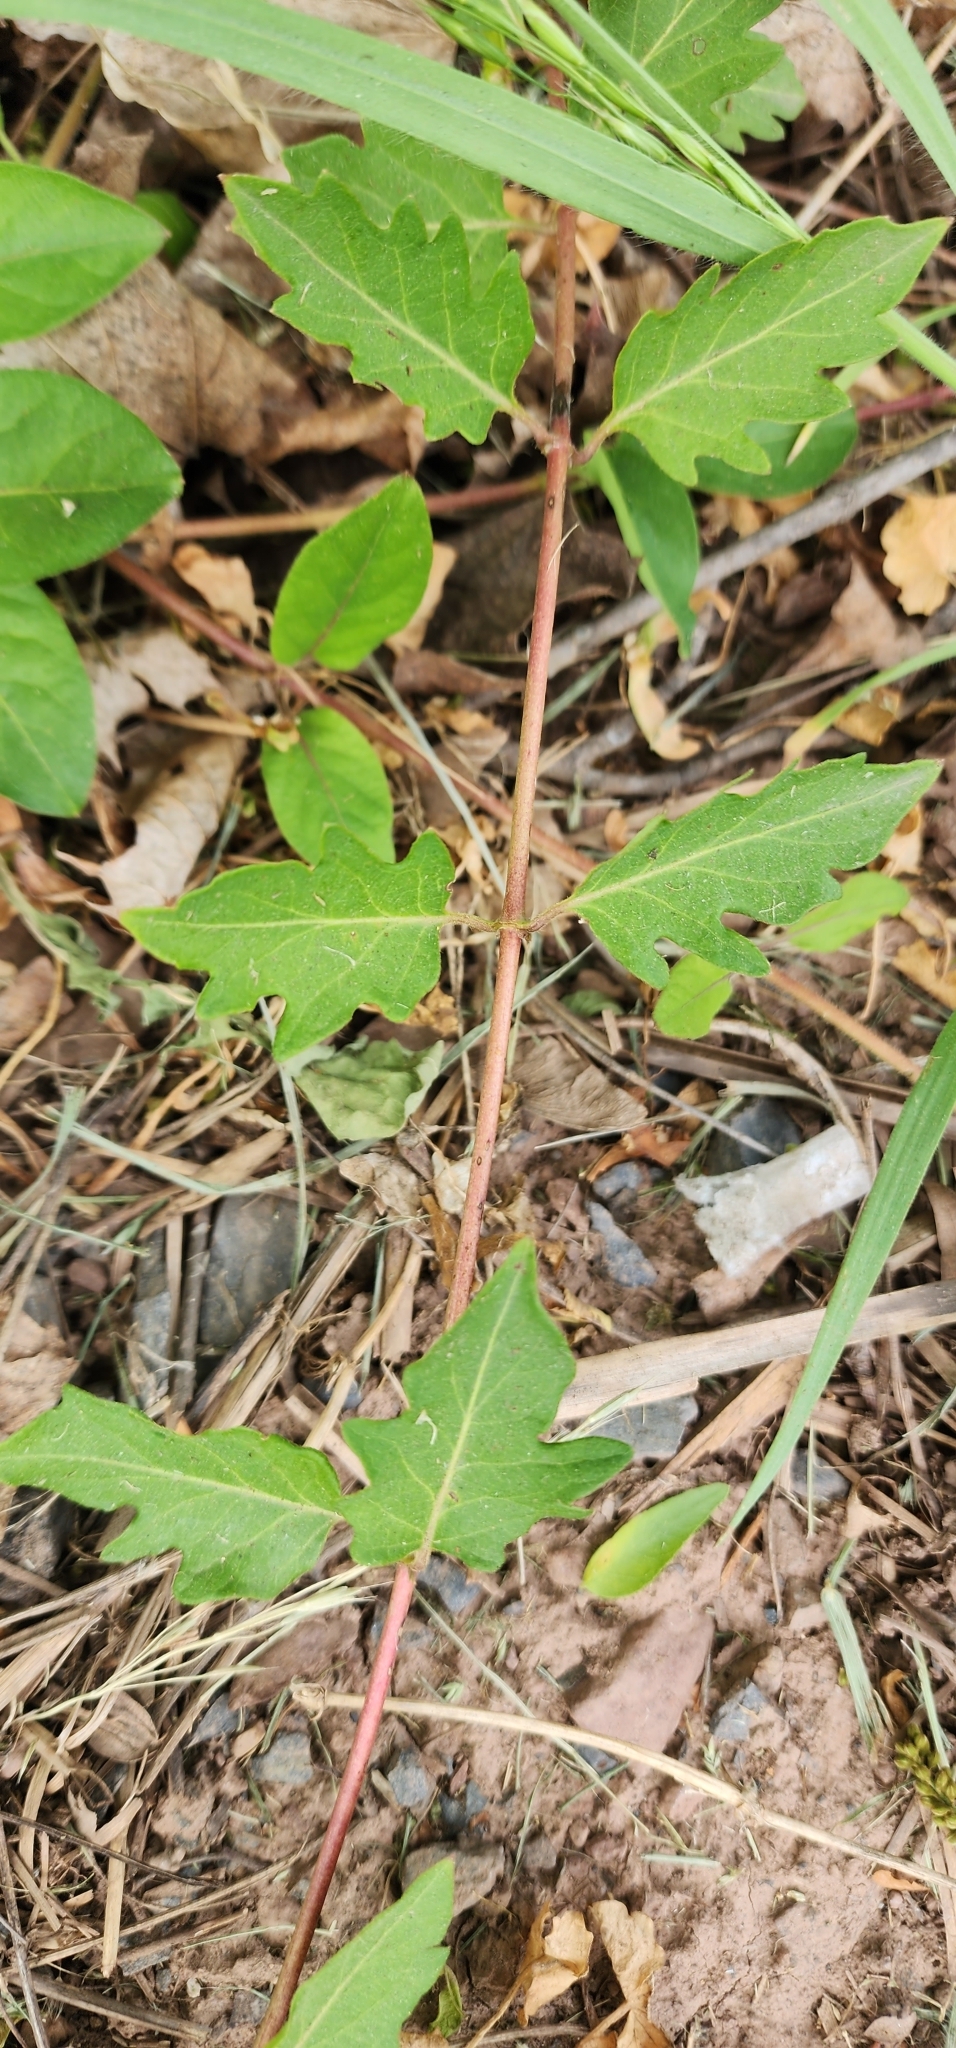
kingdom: Plantae
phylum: Tracheophyta
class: Magnoliopsida
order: Dipsacales
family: Caprifoliaceae
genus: Lonicera
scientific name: Lonicera japonica
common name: Japanese honeysuckle
